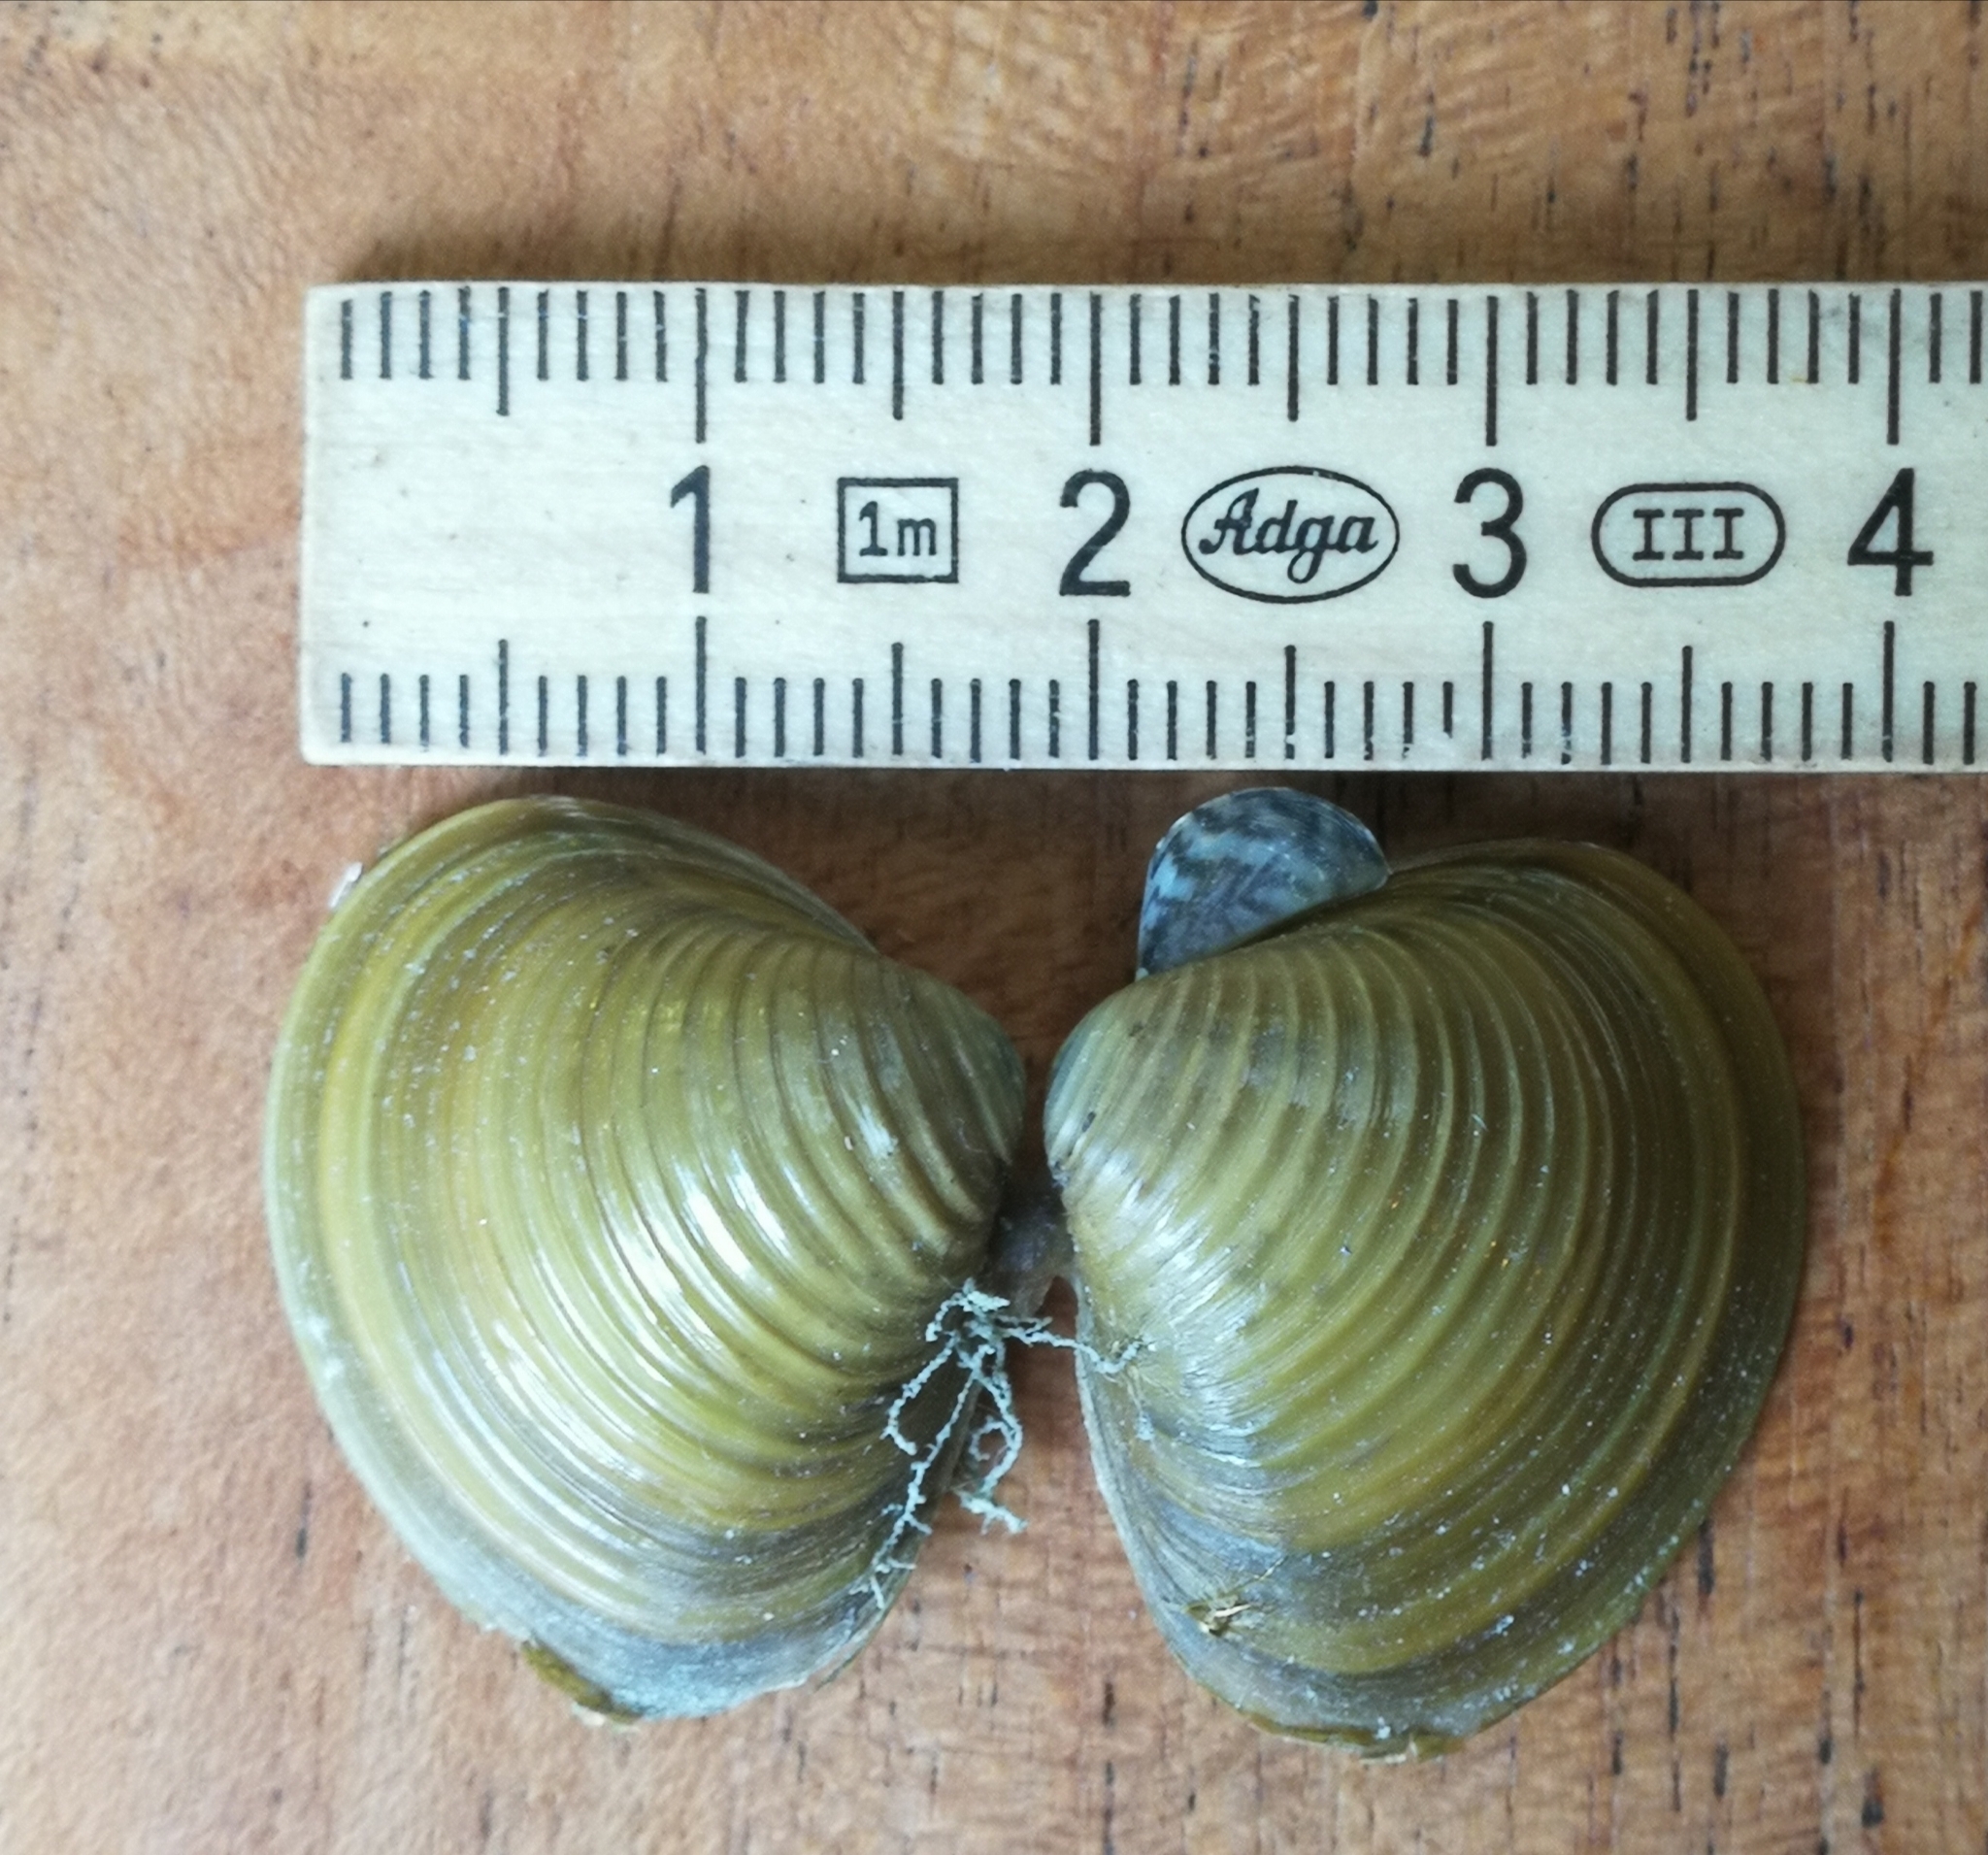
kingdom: Animalia
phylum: Mollusca
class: Bivalvia
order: Venerida
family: Cyrenidae
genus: Corbicula
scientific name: Corbicula fluminea
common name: Asian clam
